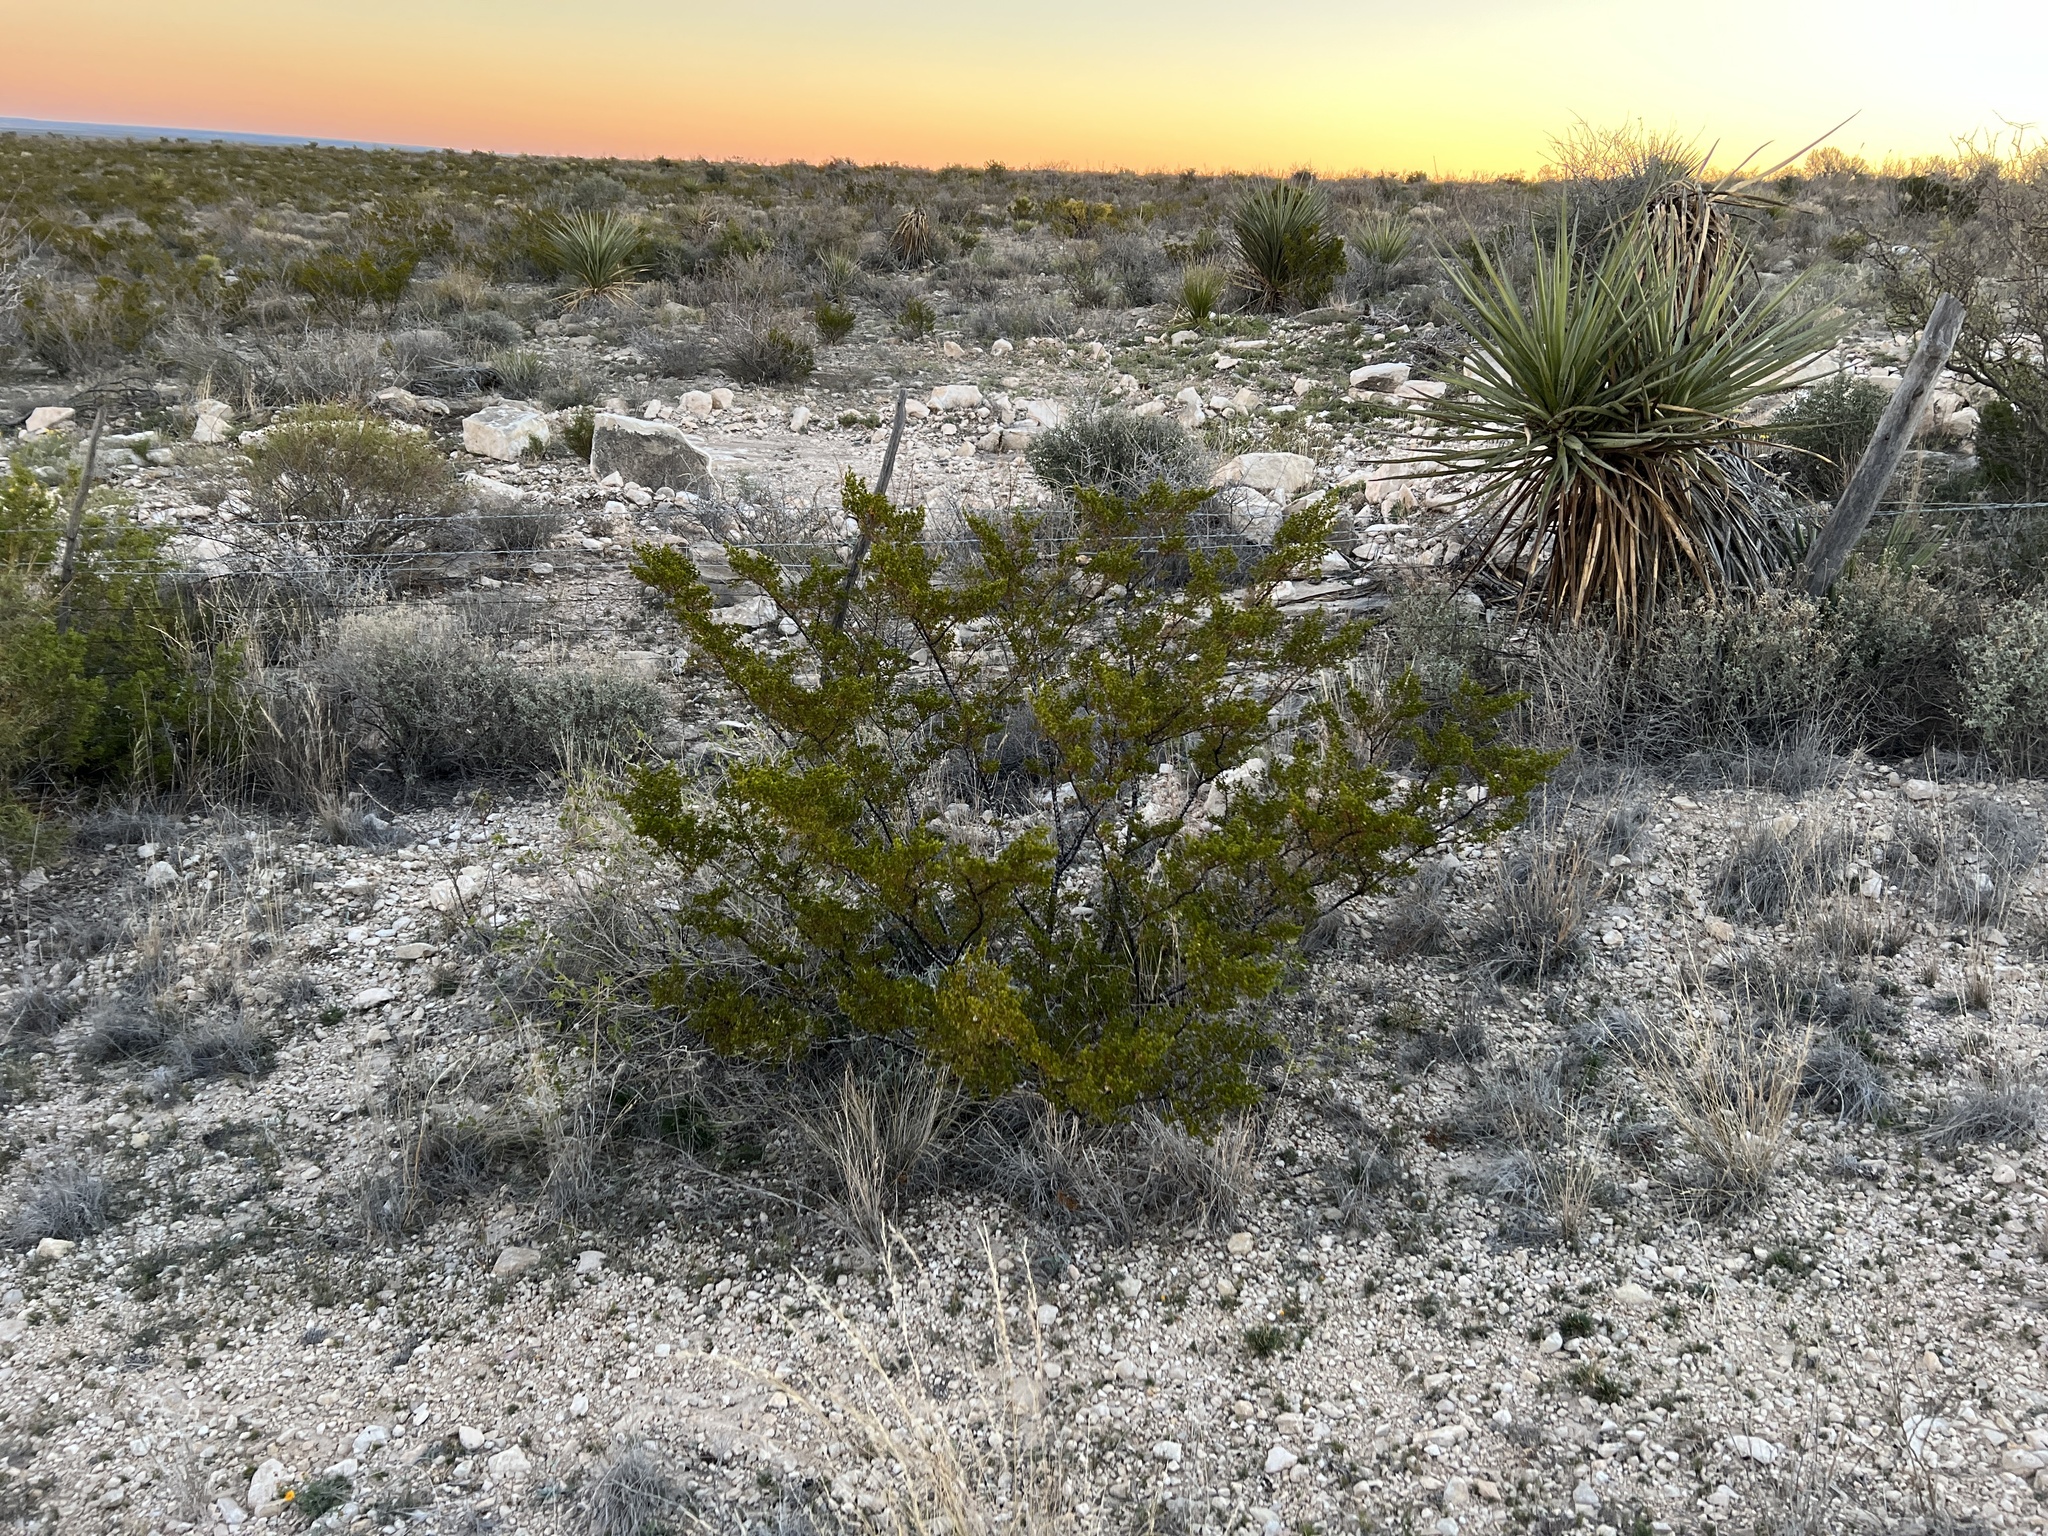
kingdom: Plantae
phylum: Tracheophyta
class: Magnoliopsida
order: Zygophyllales
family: Zygophyllaceae
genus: Larrea
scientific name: Larrea tridentata
